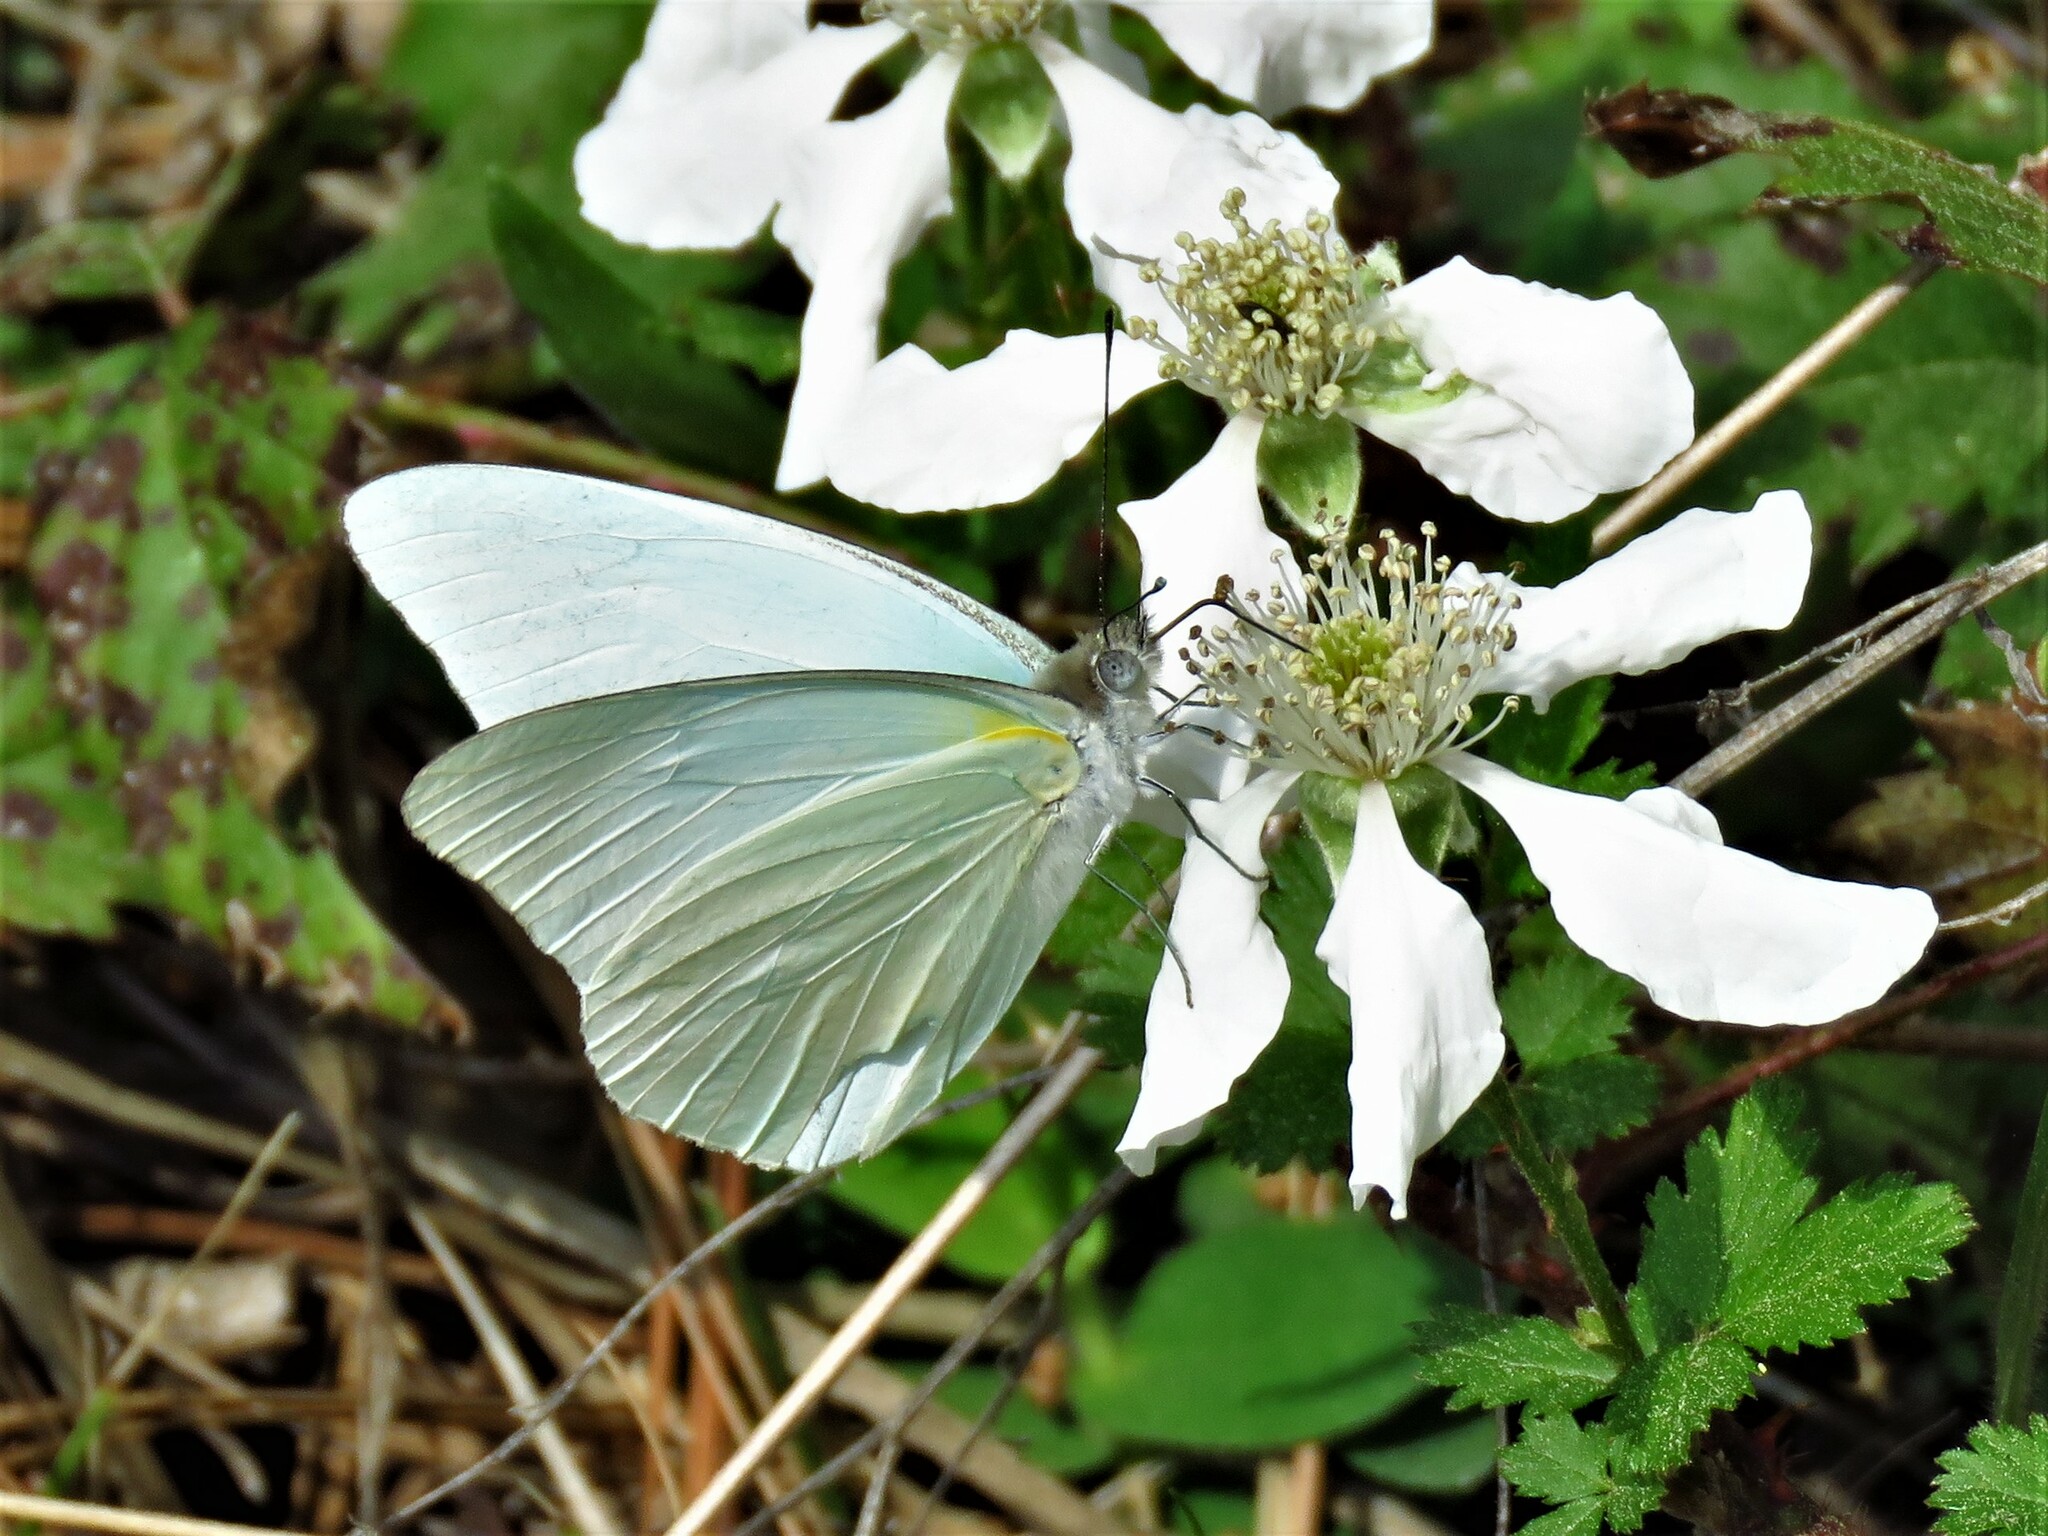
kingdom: Animalia
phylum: Arthropoda
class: Insecta
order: Lepidoptera
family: Pieridae
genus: Glutophrissa
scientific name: Glutophrissa drusilla
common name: Florida white
